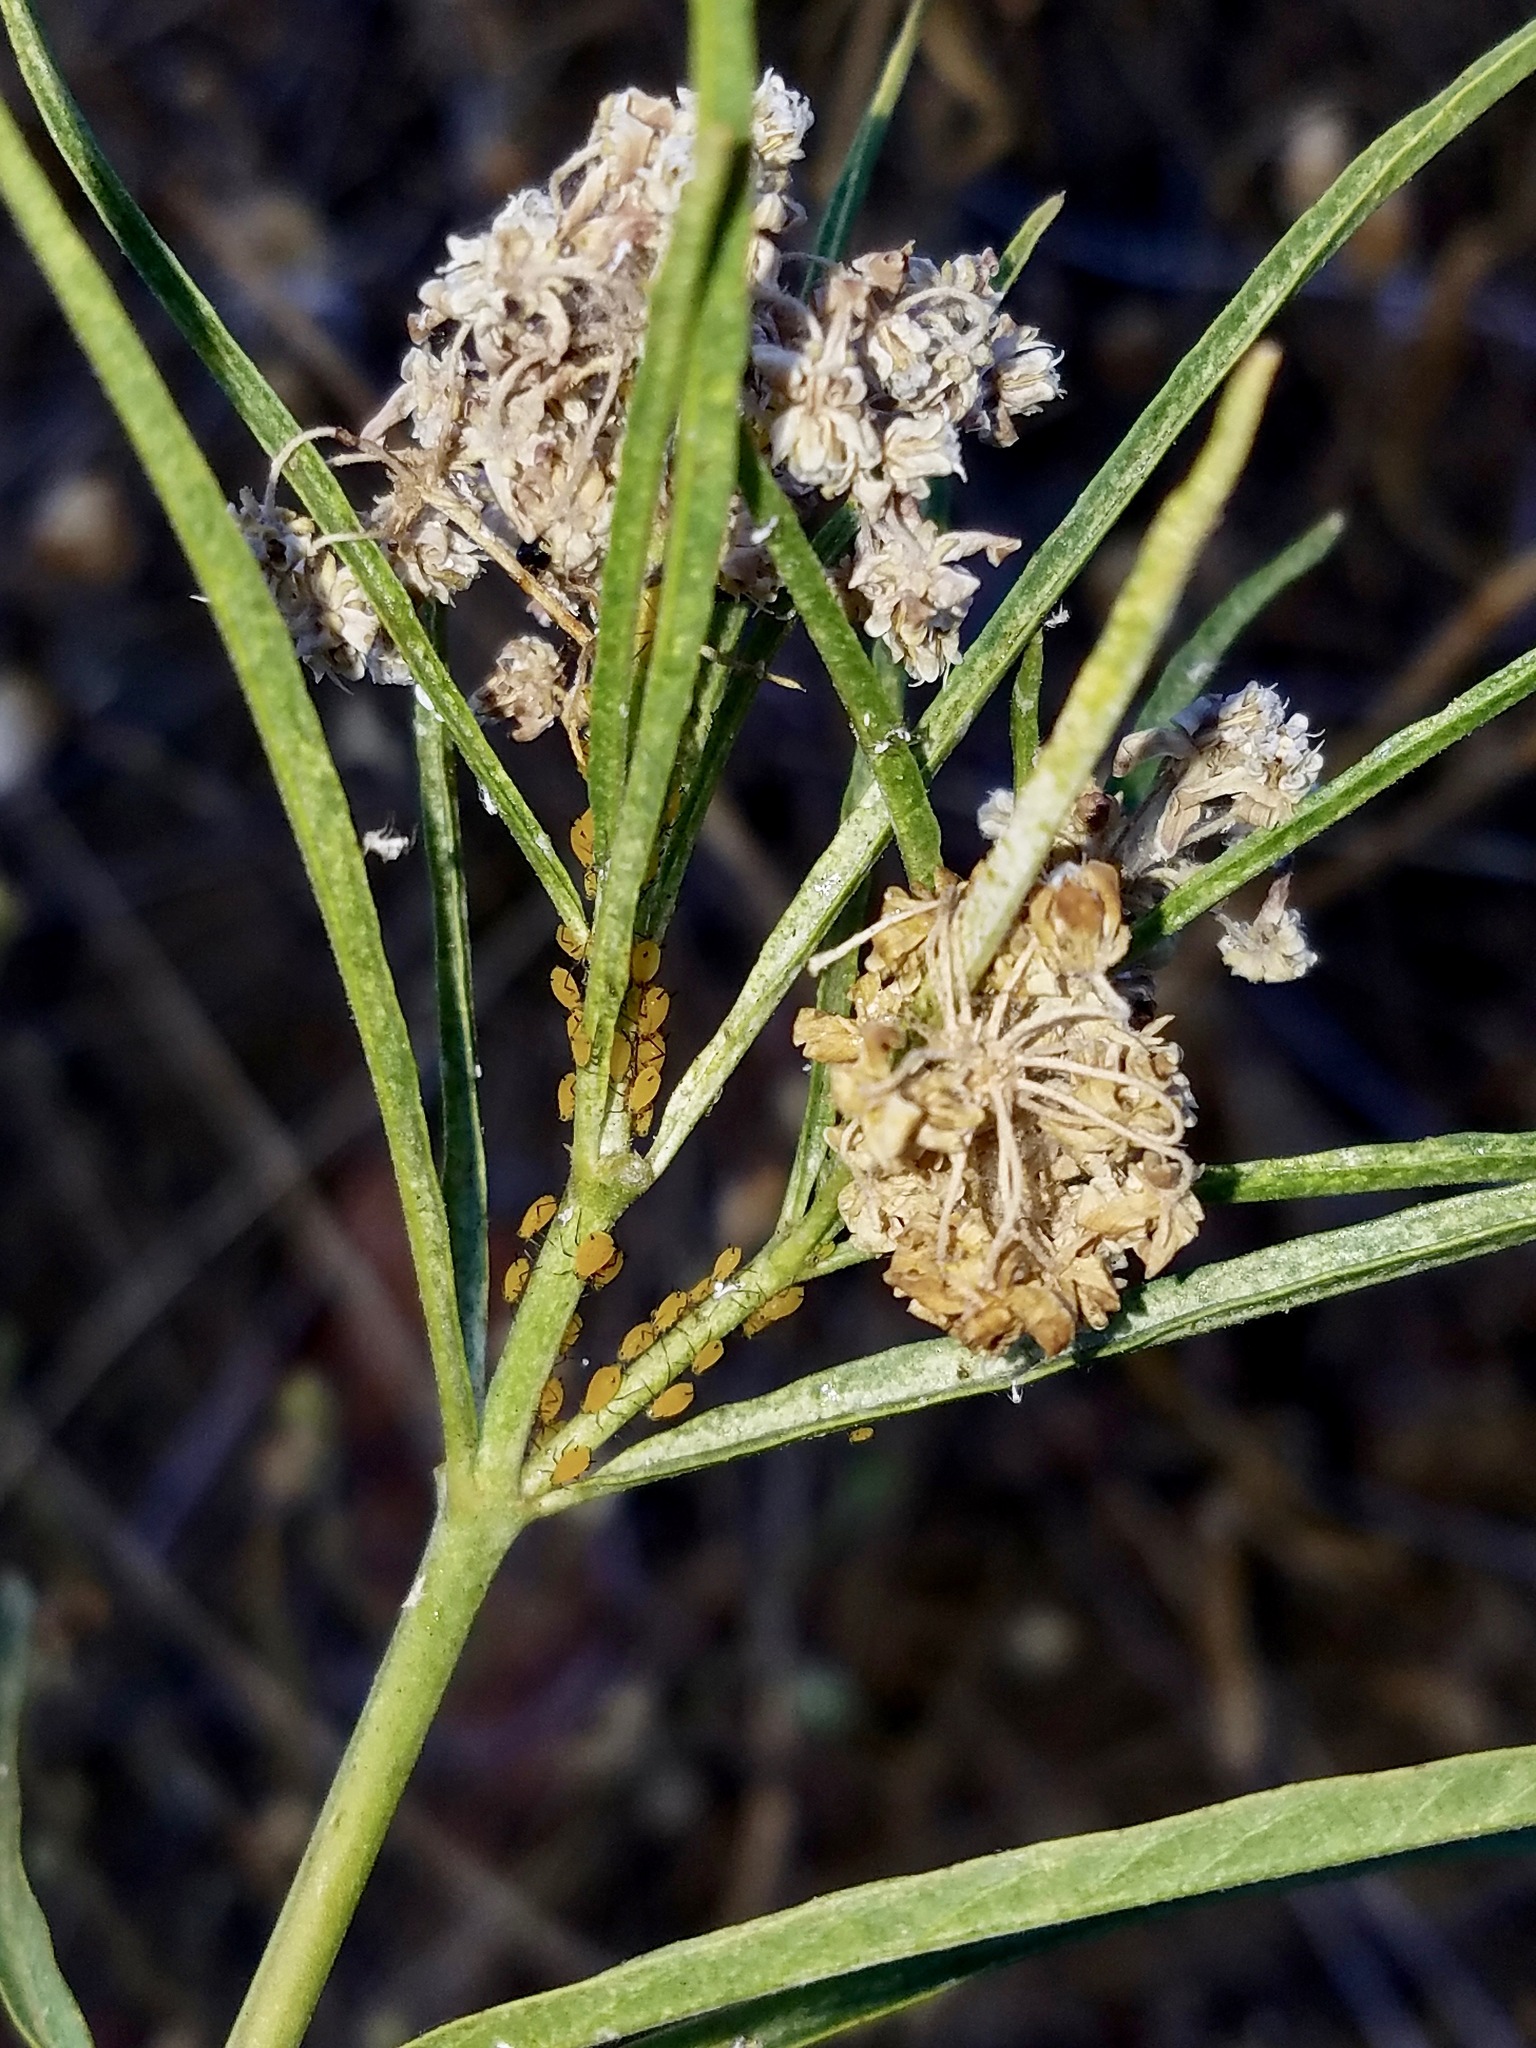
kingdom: Plantae
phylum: Tracheophyta
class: Magnoliopsida
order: Gentianales
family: Apocynaceae
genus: Asclepias
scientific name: Asclepias fascicularis
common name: Mexican milkweed
